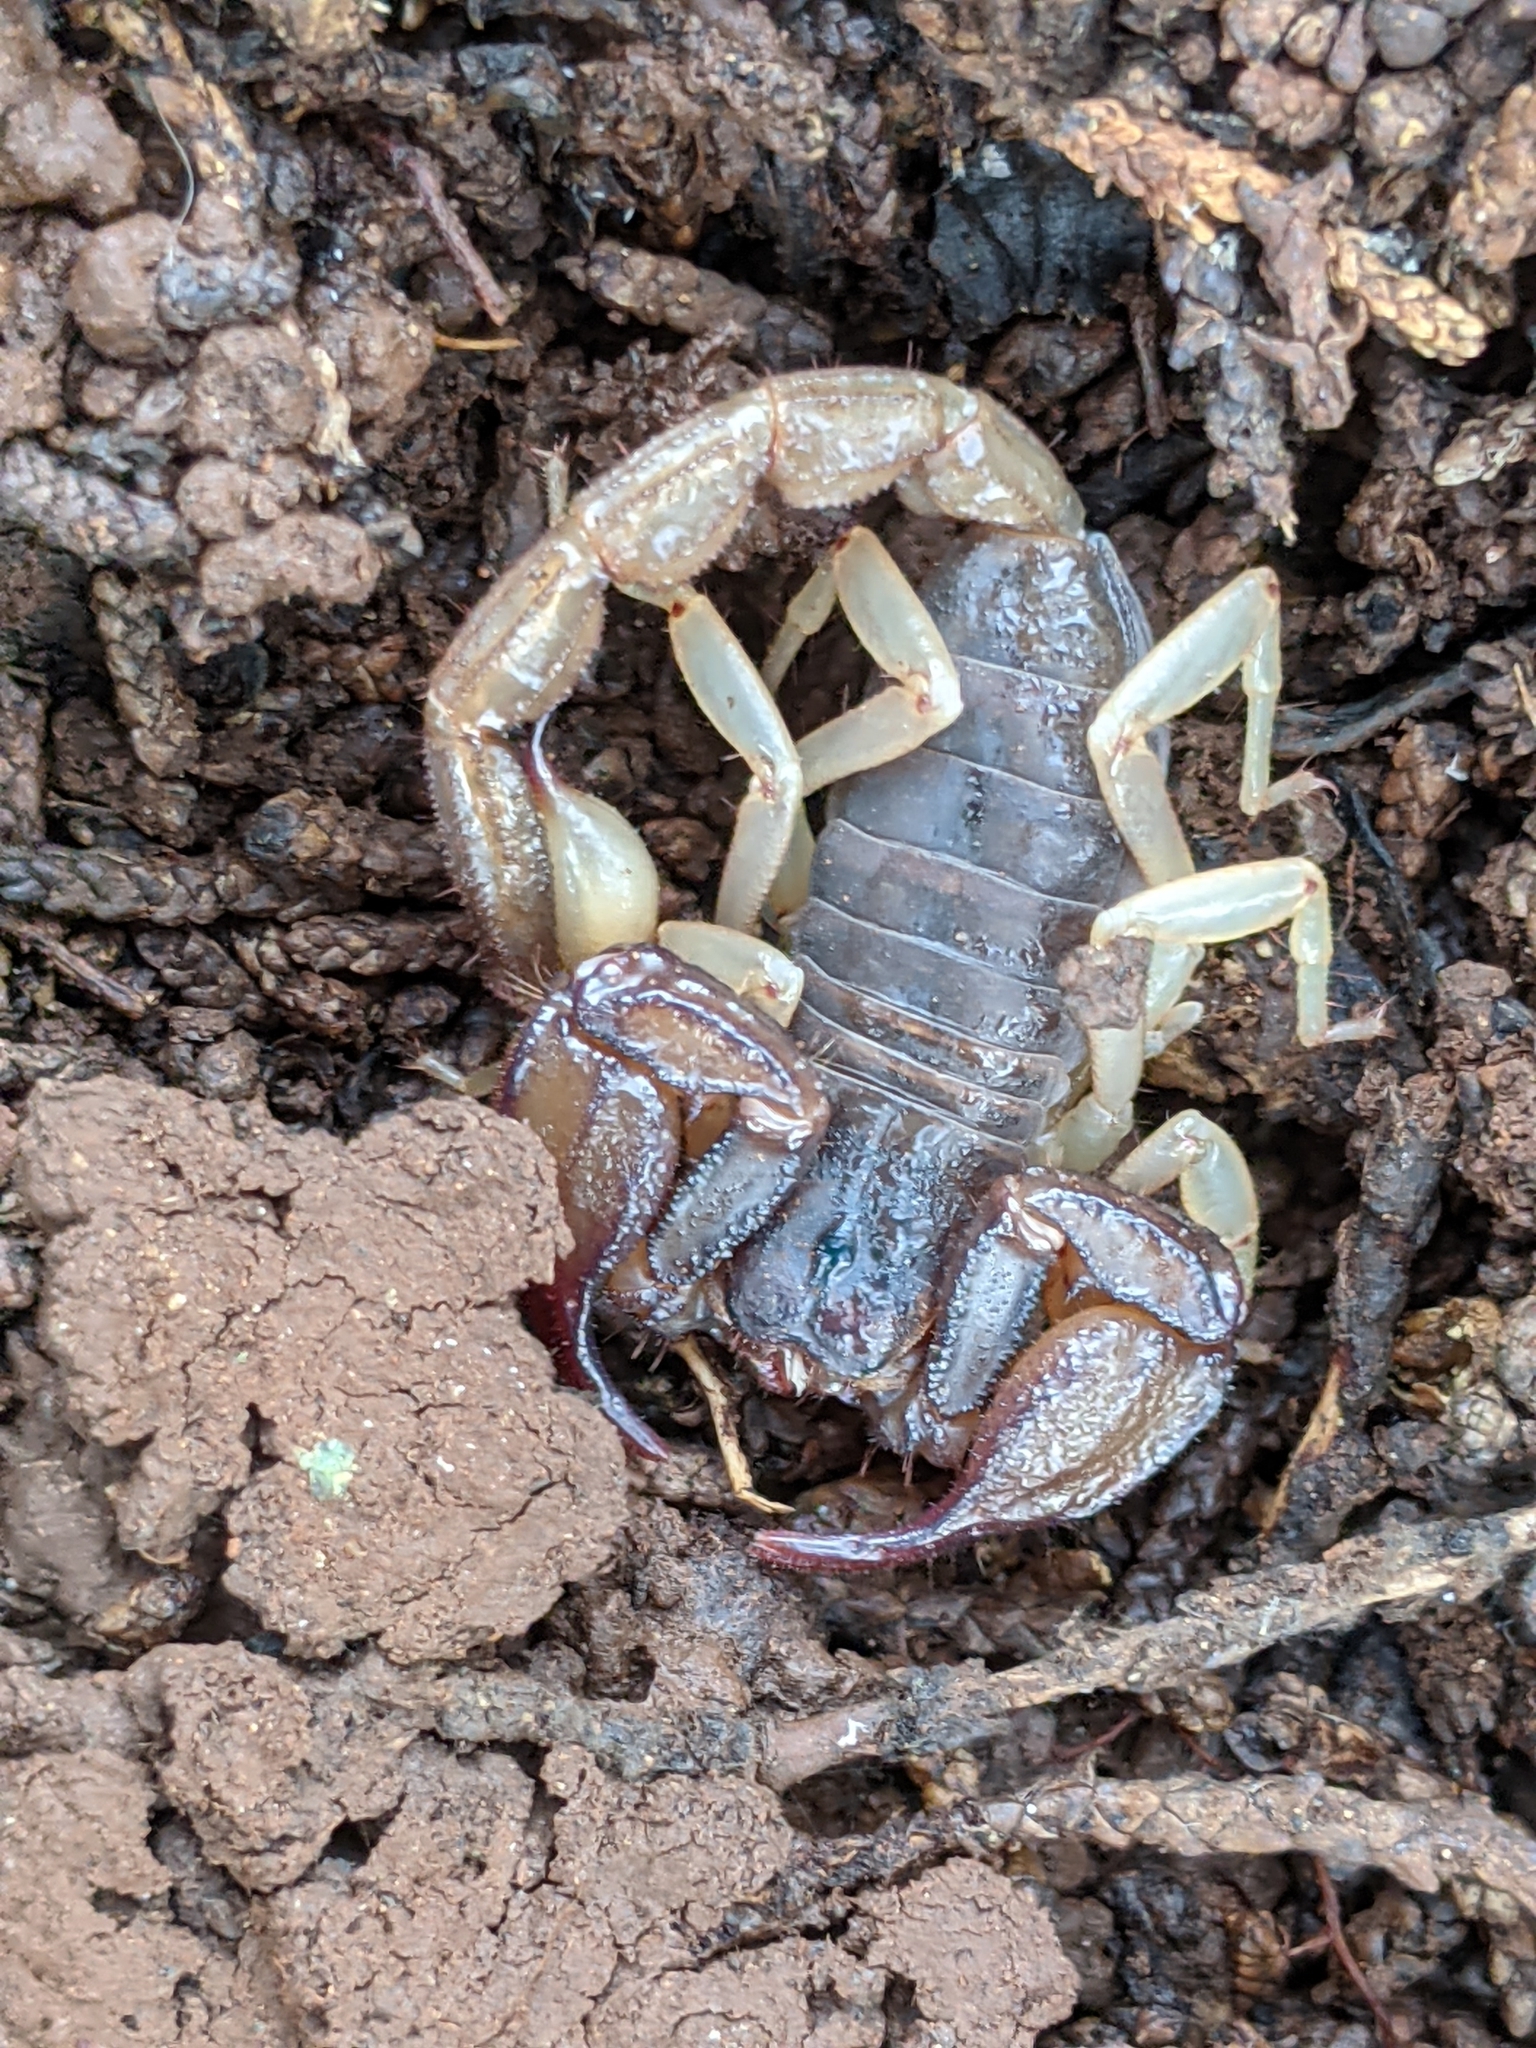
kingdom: Animalia
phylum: Arthropoda
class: Arachnida
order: Scorpiones
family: Chactidae
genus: Uroctonus
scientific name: Uroctonus mordax
